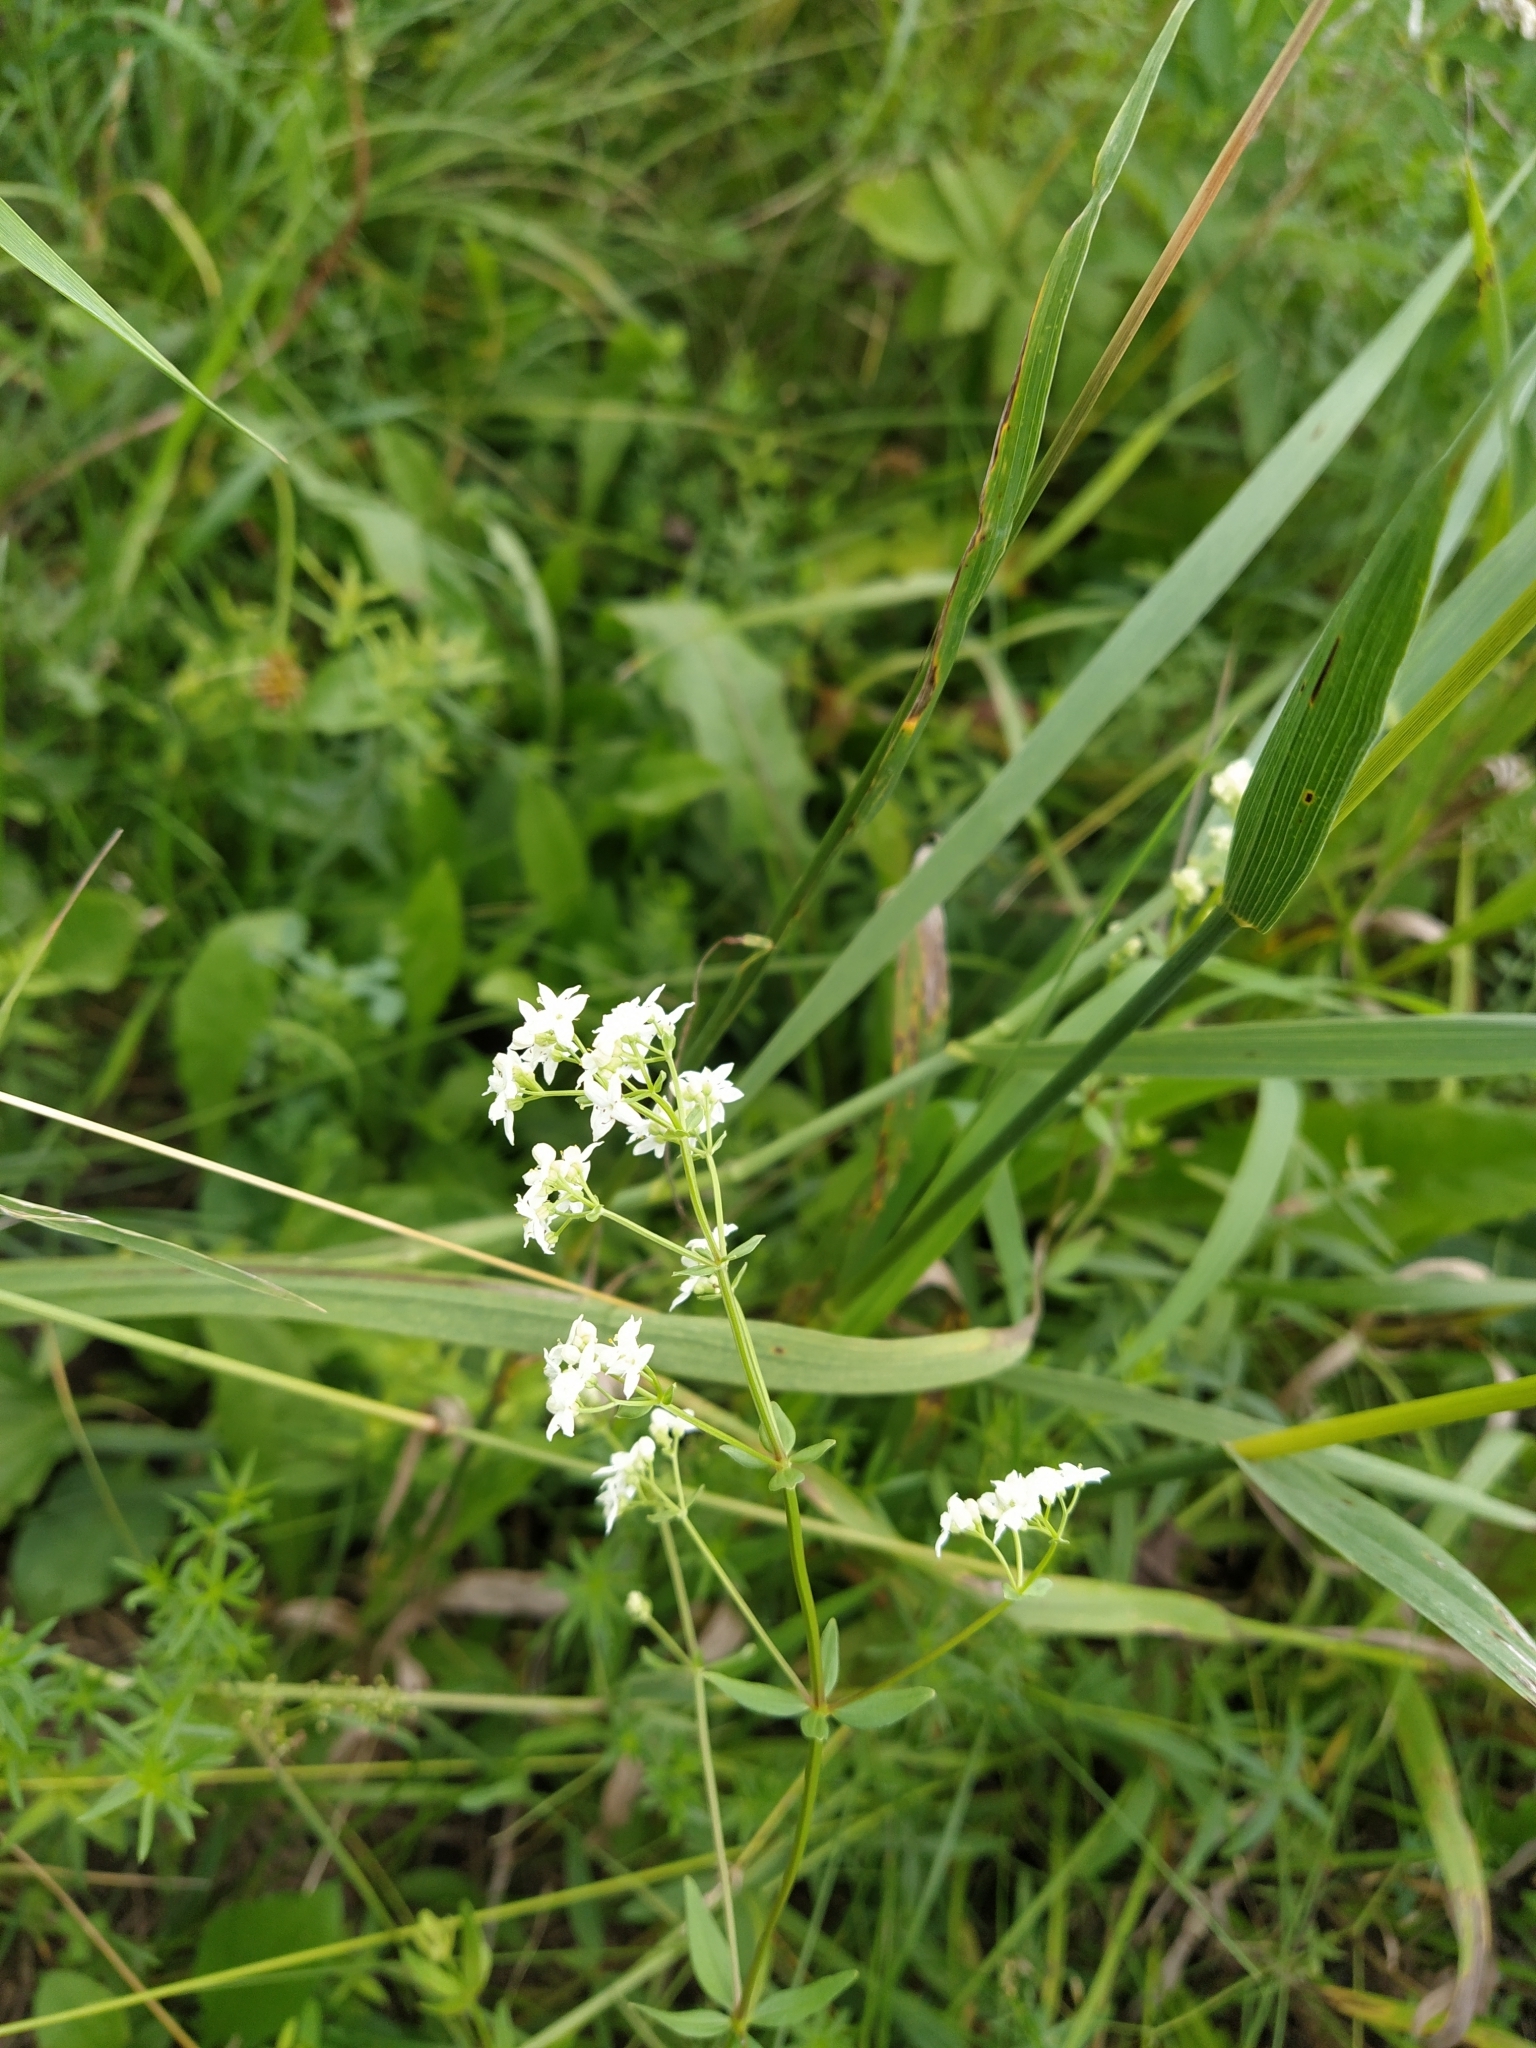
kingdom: Plantae
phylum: Tracheophyta
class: Magnoliopsida
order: Gentianales
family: Rubiaceae
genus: Galium
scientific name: Galium boreale
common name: Northern bedstraw
